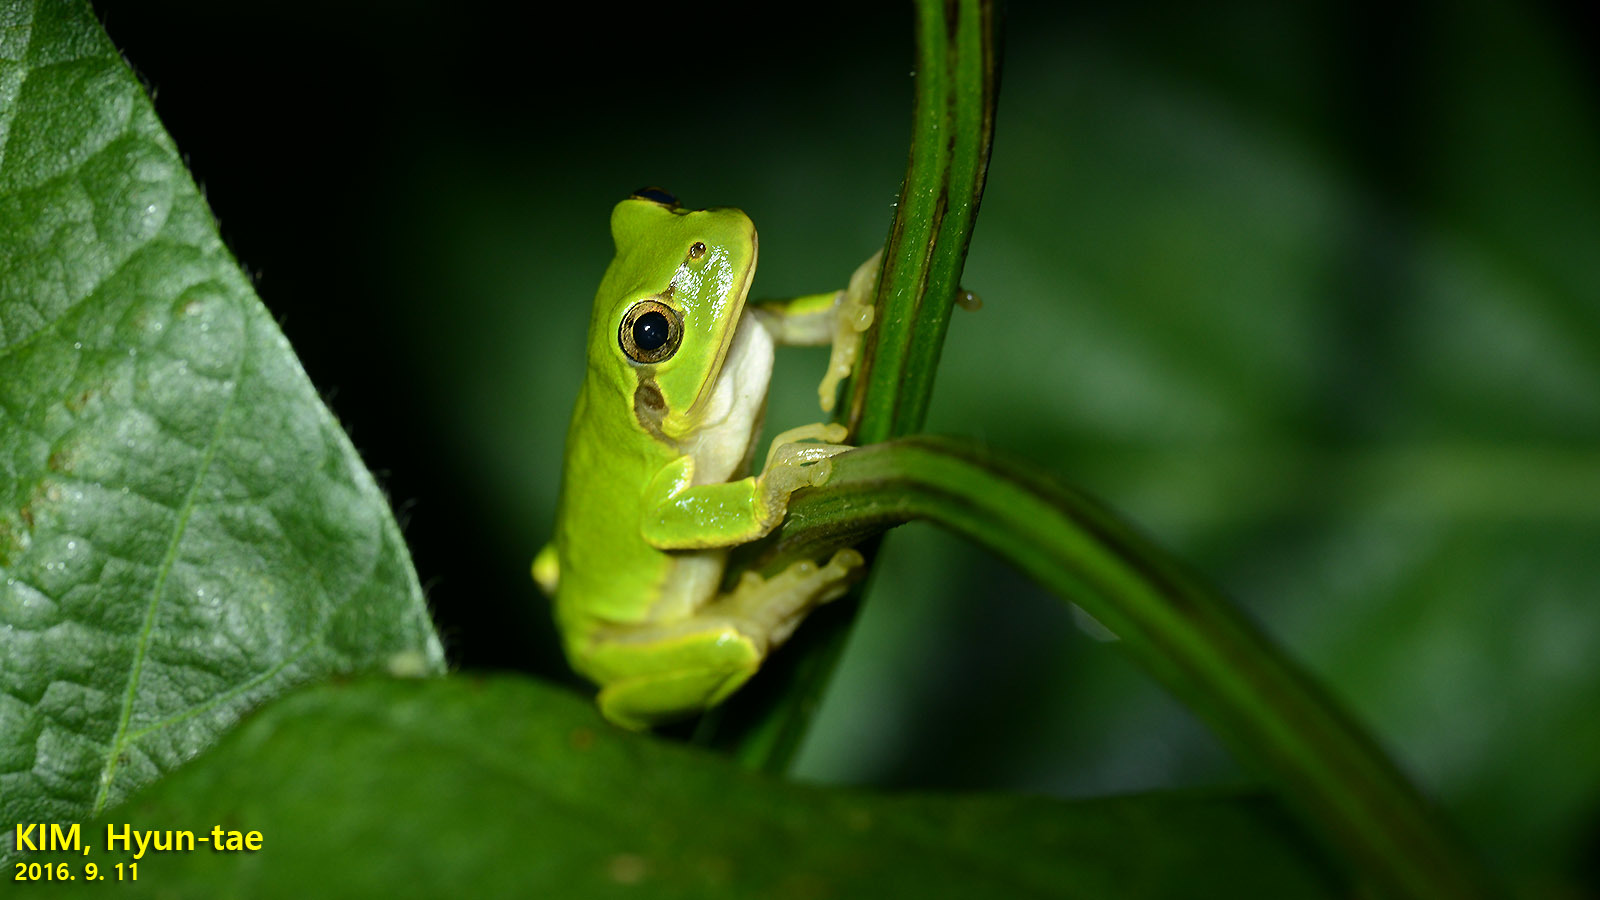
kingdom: Animalia
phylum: Chordata
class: Amphibia
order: Anura
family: Hylidae
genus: Dryophytes
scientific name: Dryophytes japonicus
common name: Japanese treefrog
